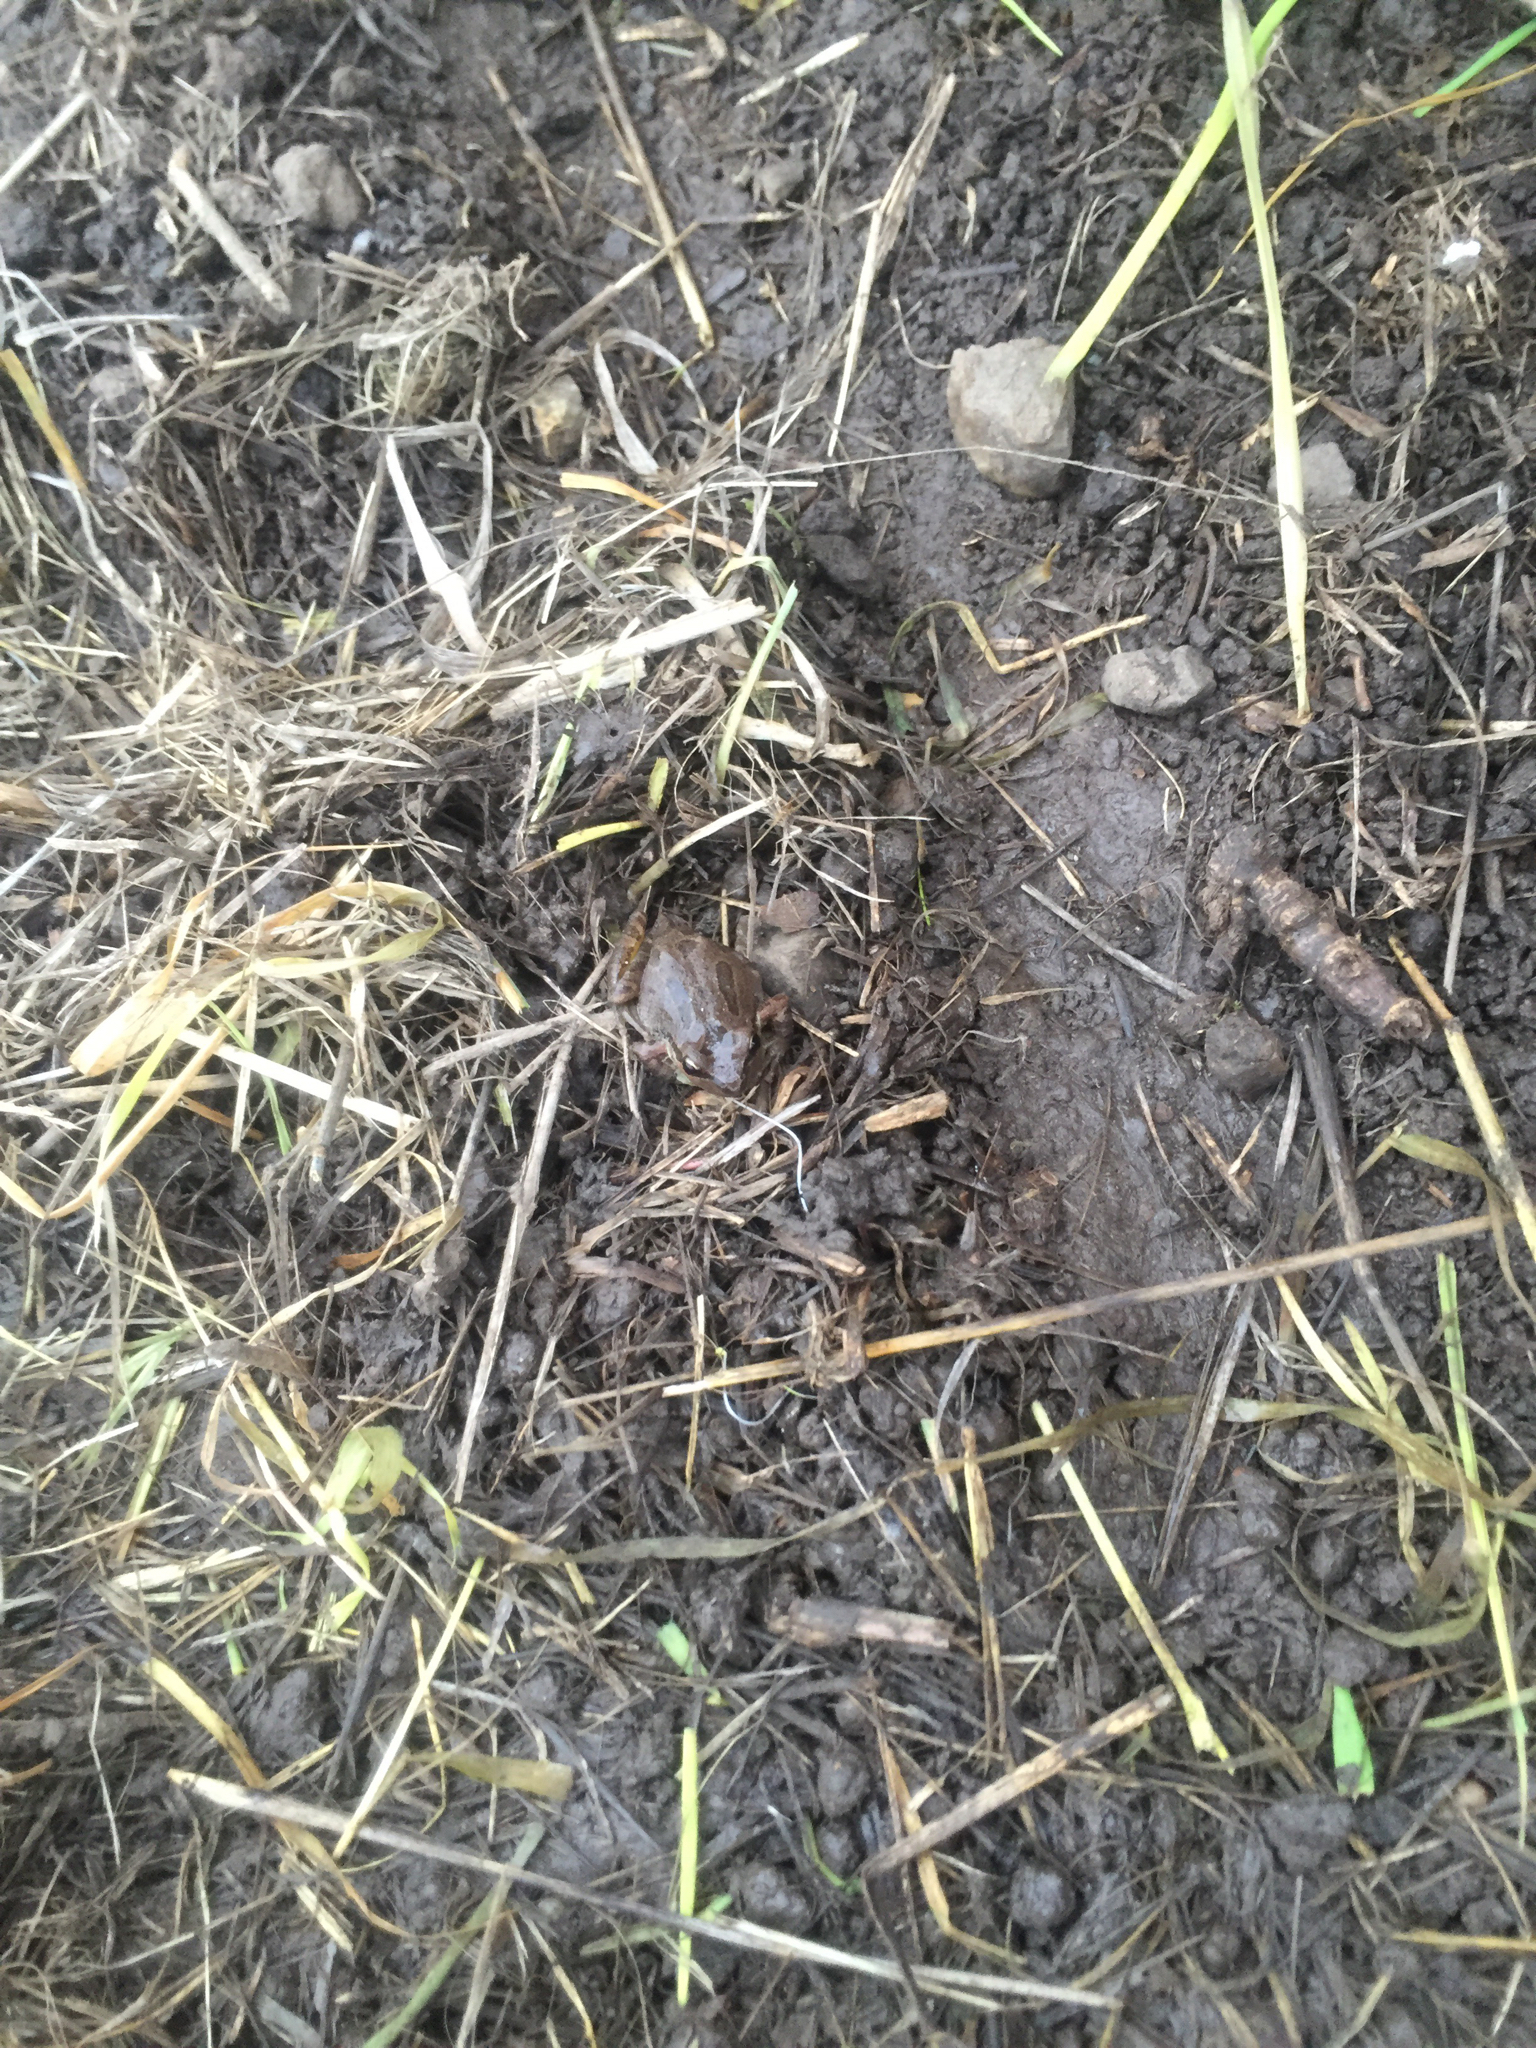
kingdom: Animalia
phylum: Chordata
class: Amphibia
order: Anura
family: Hylidae
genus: Pseudacris
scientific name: Pseudacris regilla
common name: Pacific chorus frog
